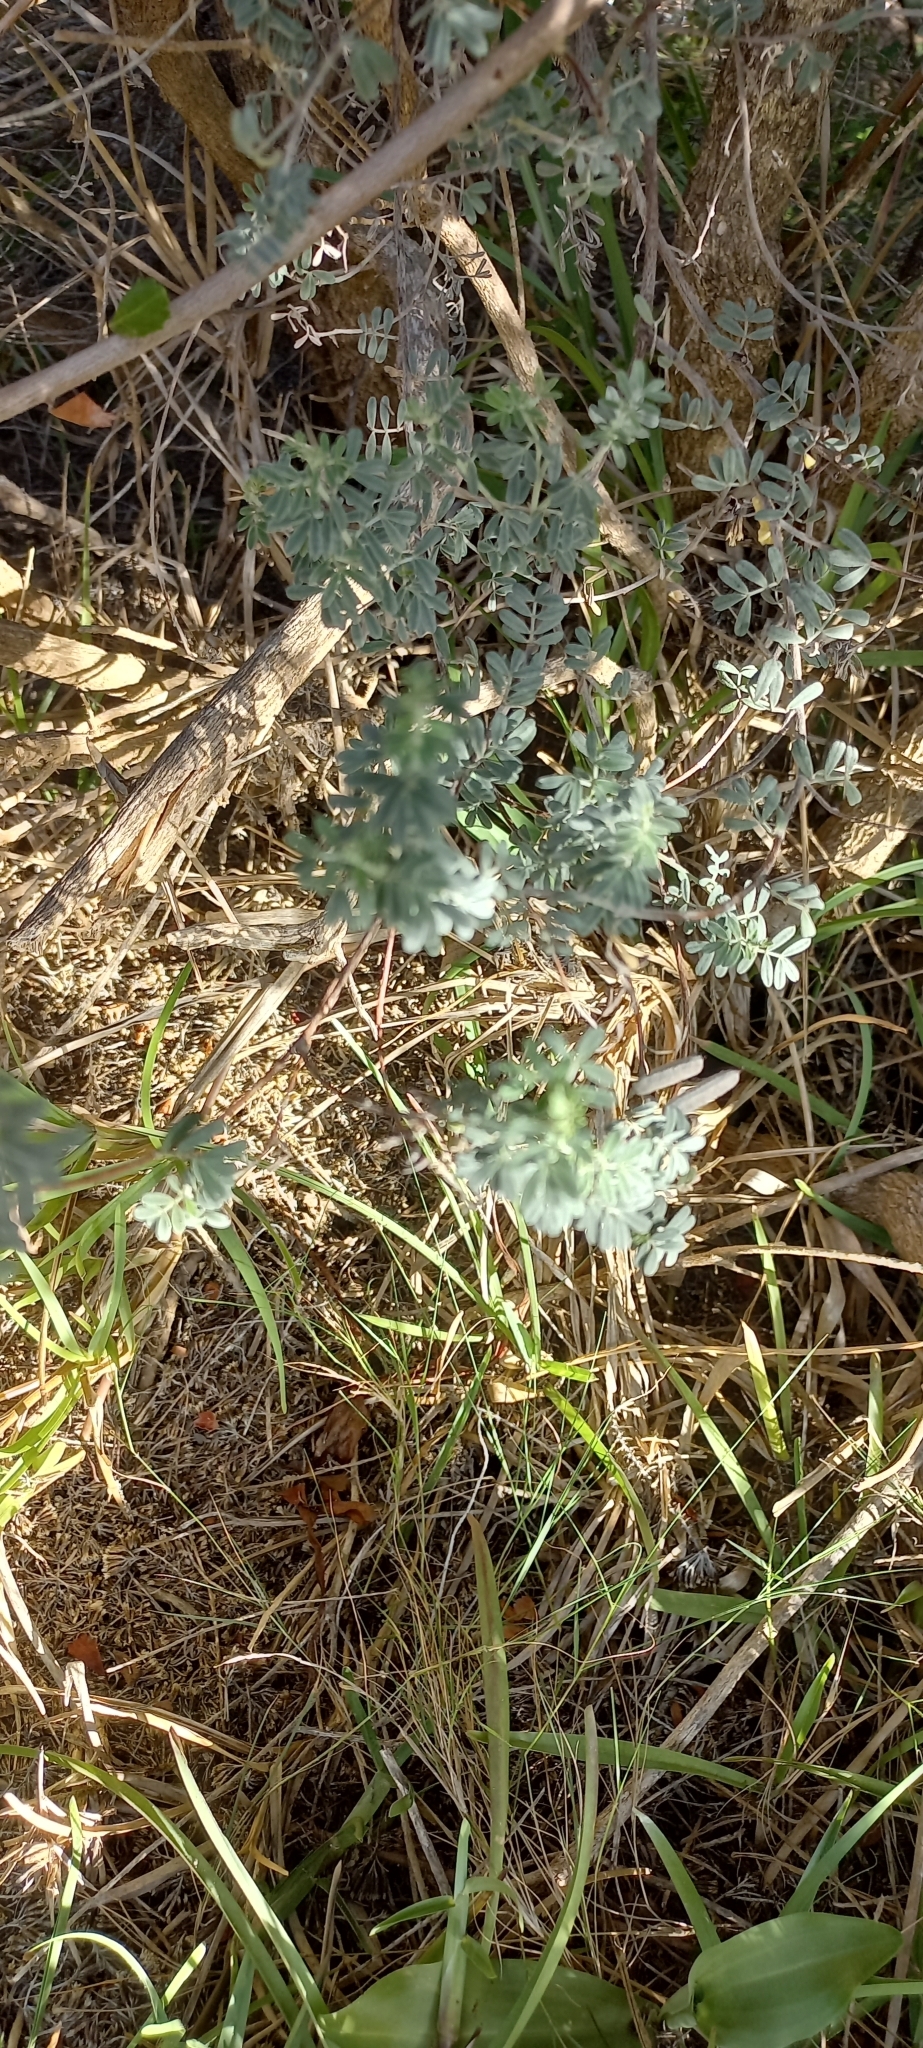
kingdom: Plantae
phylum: Tracheophyta
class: Magnoliopsida
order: Fabales
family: Fabaceae
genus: Indigofera
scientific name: Indigofera brachystachya
